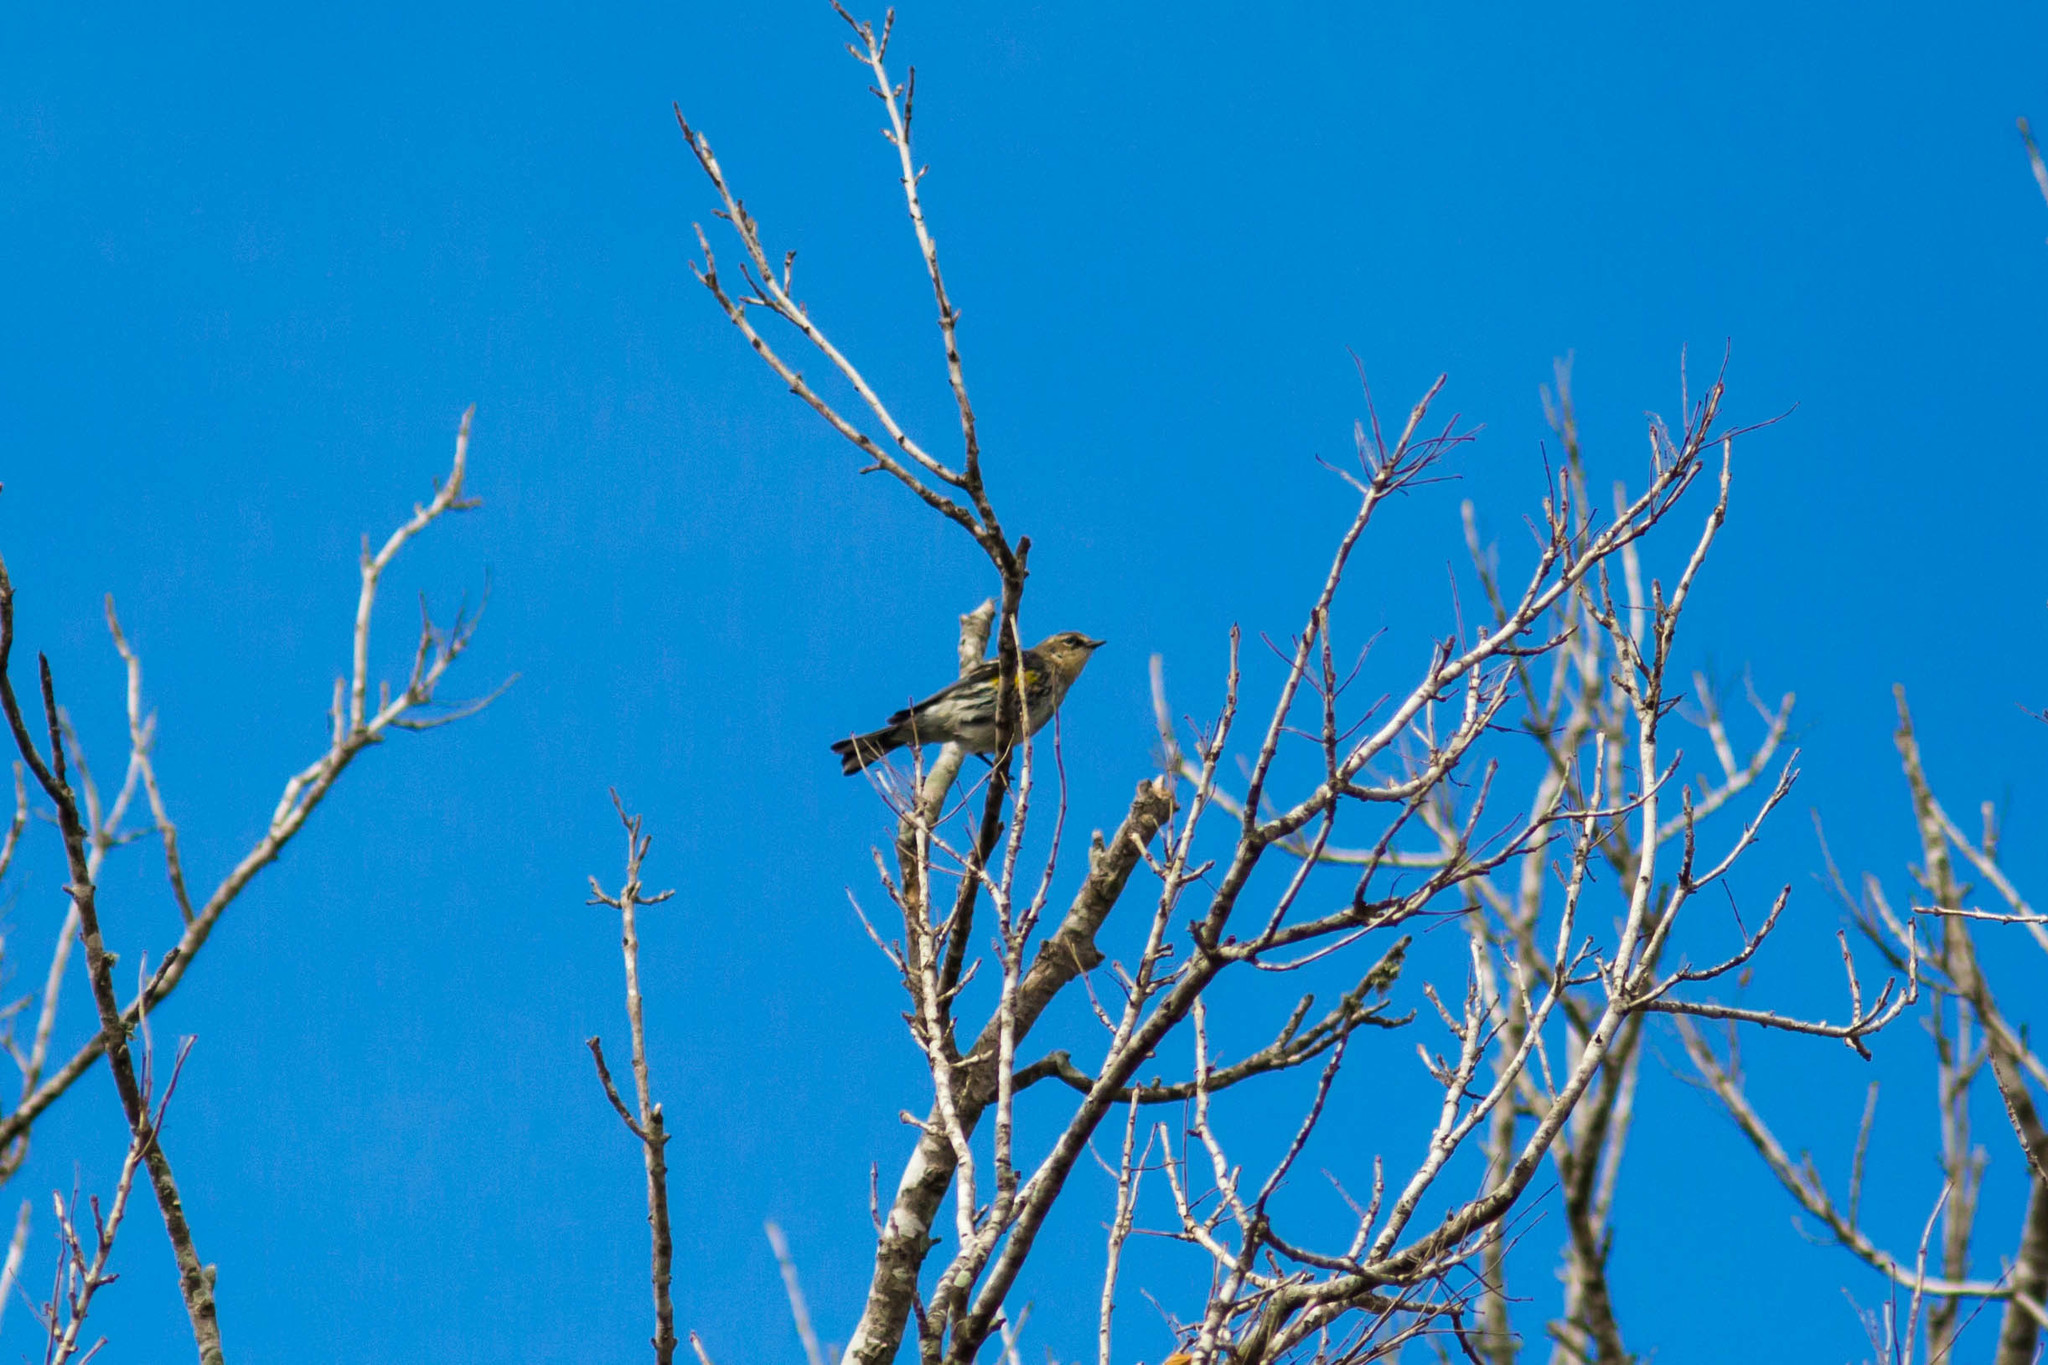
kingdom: Animalia
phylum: Chordata
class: Aves
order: Passeriformes
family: Parulidae
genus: Setophaga
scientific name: Setophaga coronata
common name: Myrtle warbler
